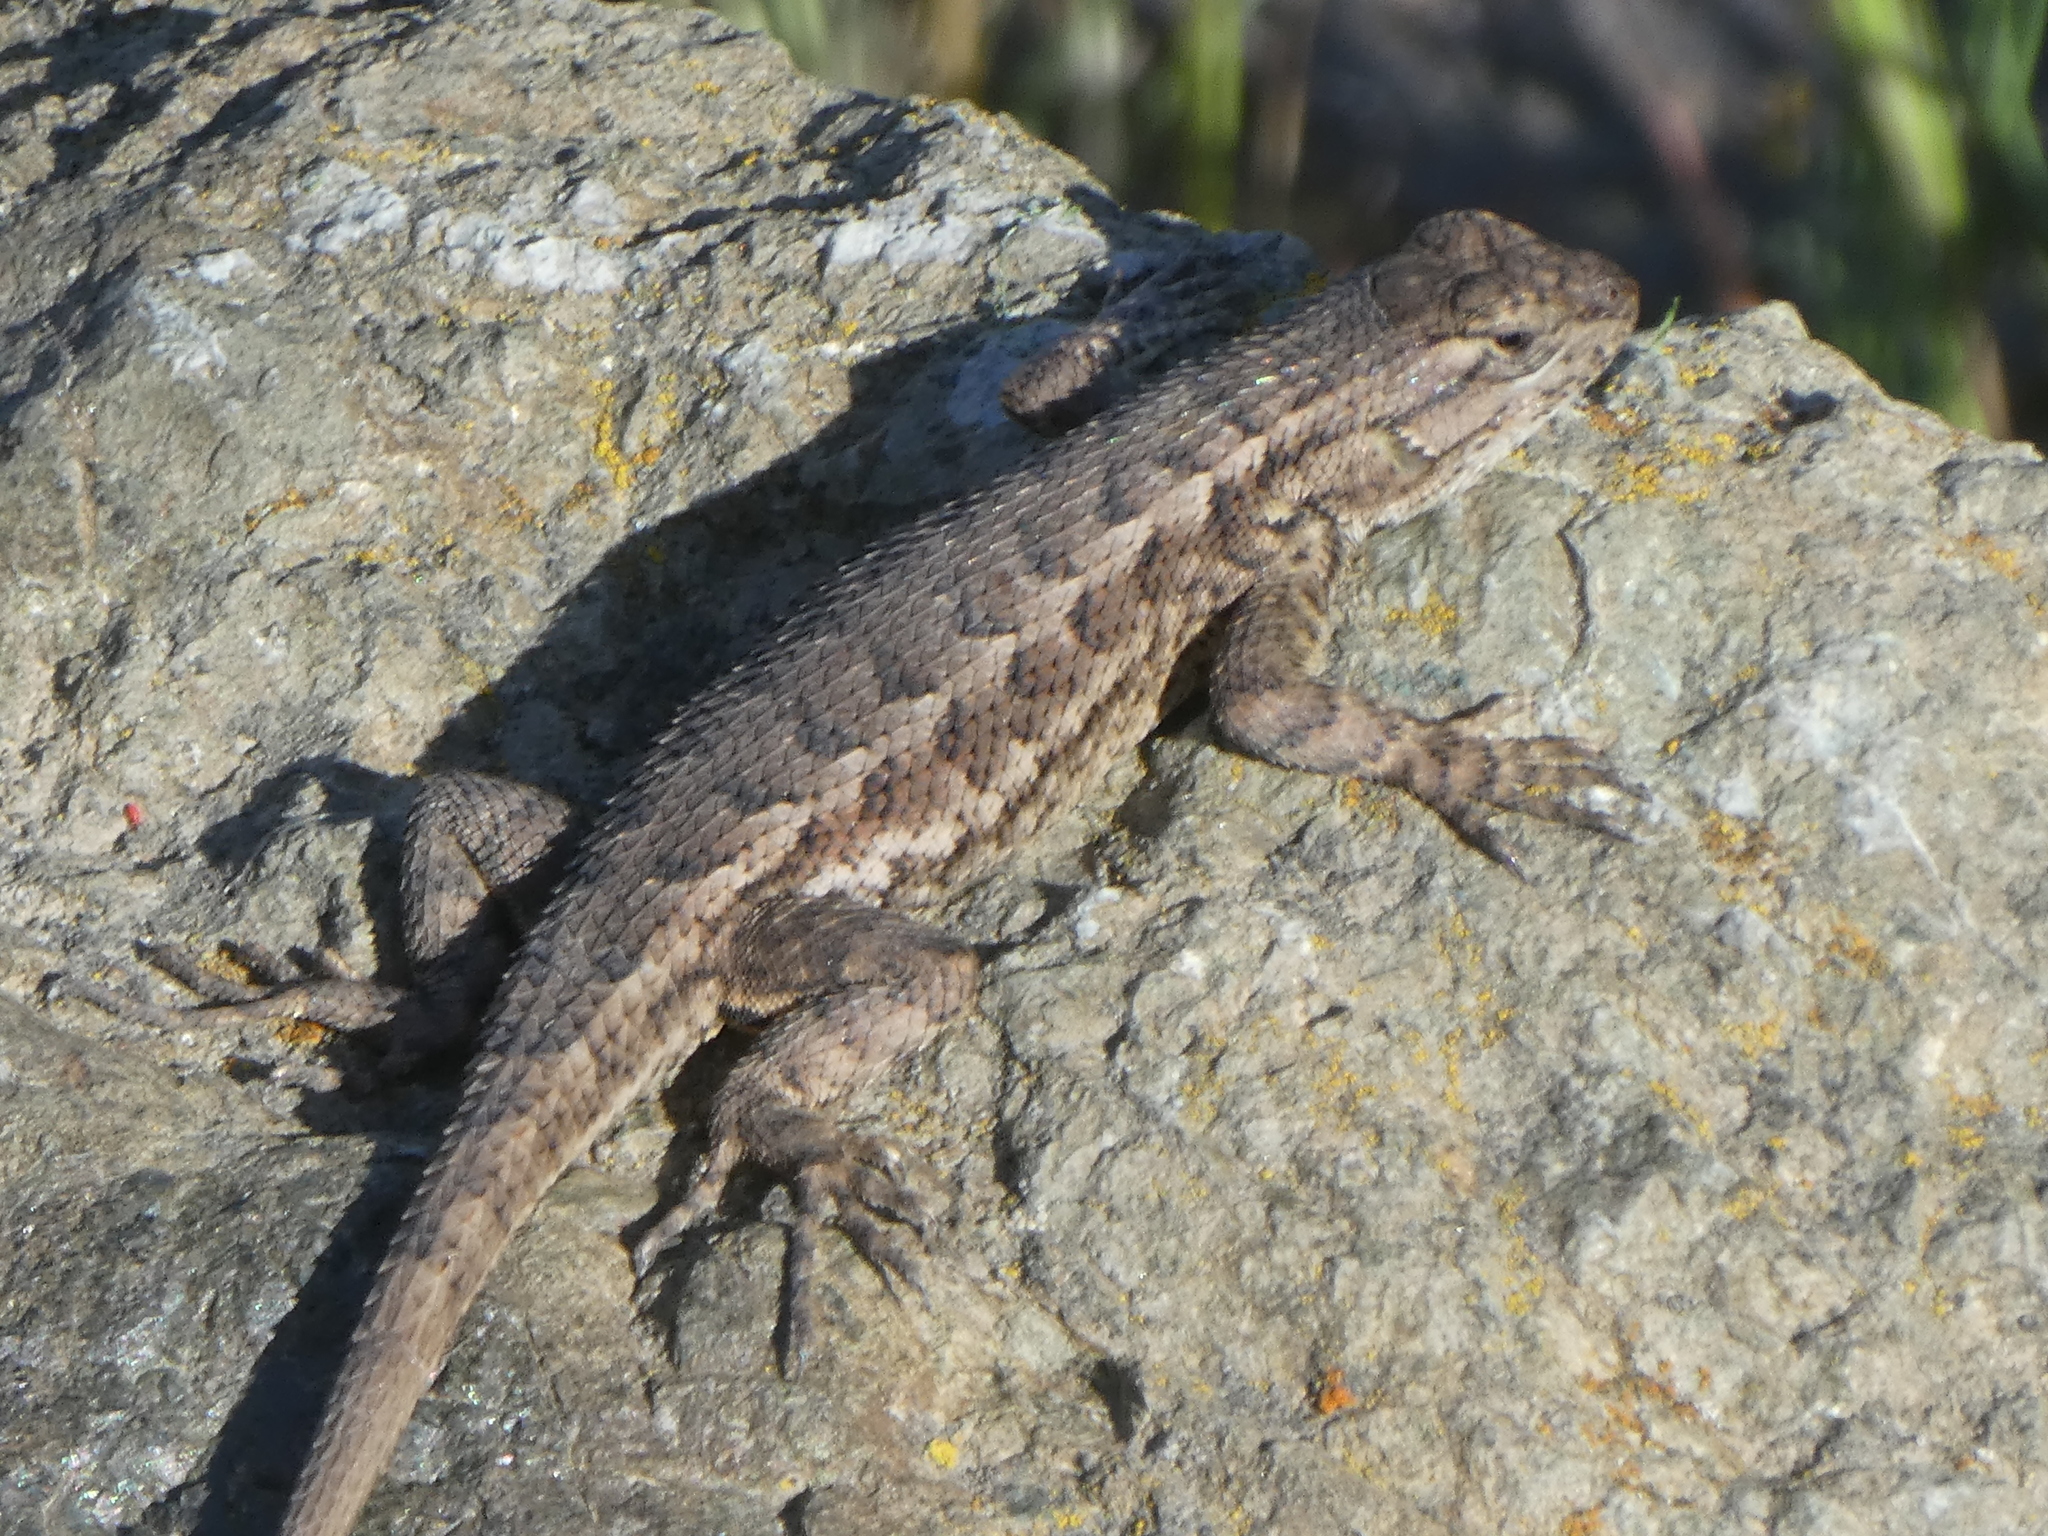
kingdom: Animalia
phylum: Chordata
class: Squamata
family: Phrynosomatidae
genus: Sceloporus
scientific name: Sceloporus occidentalis
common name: Western fence lizard
